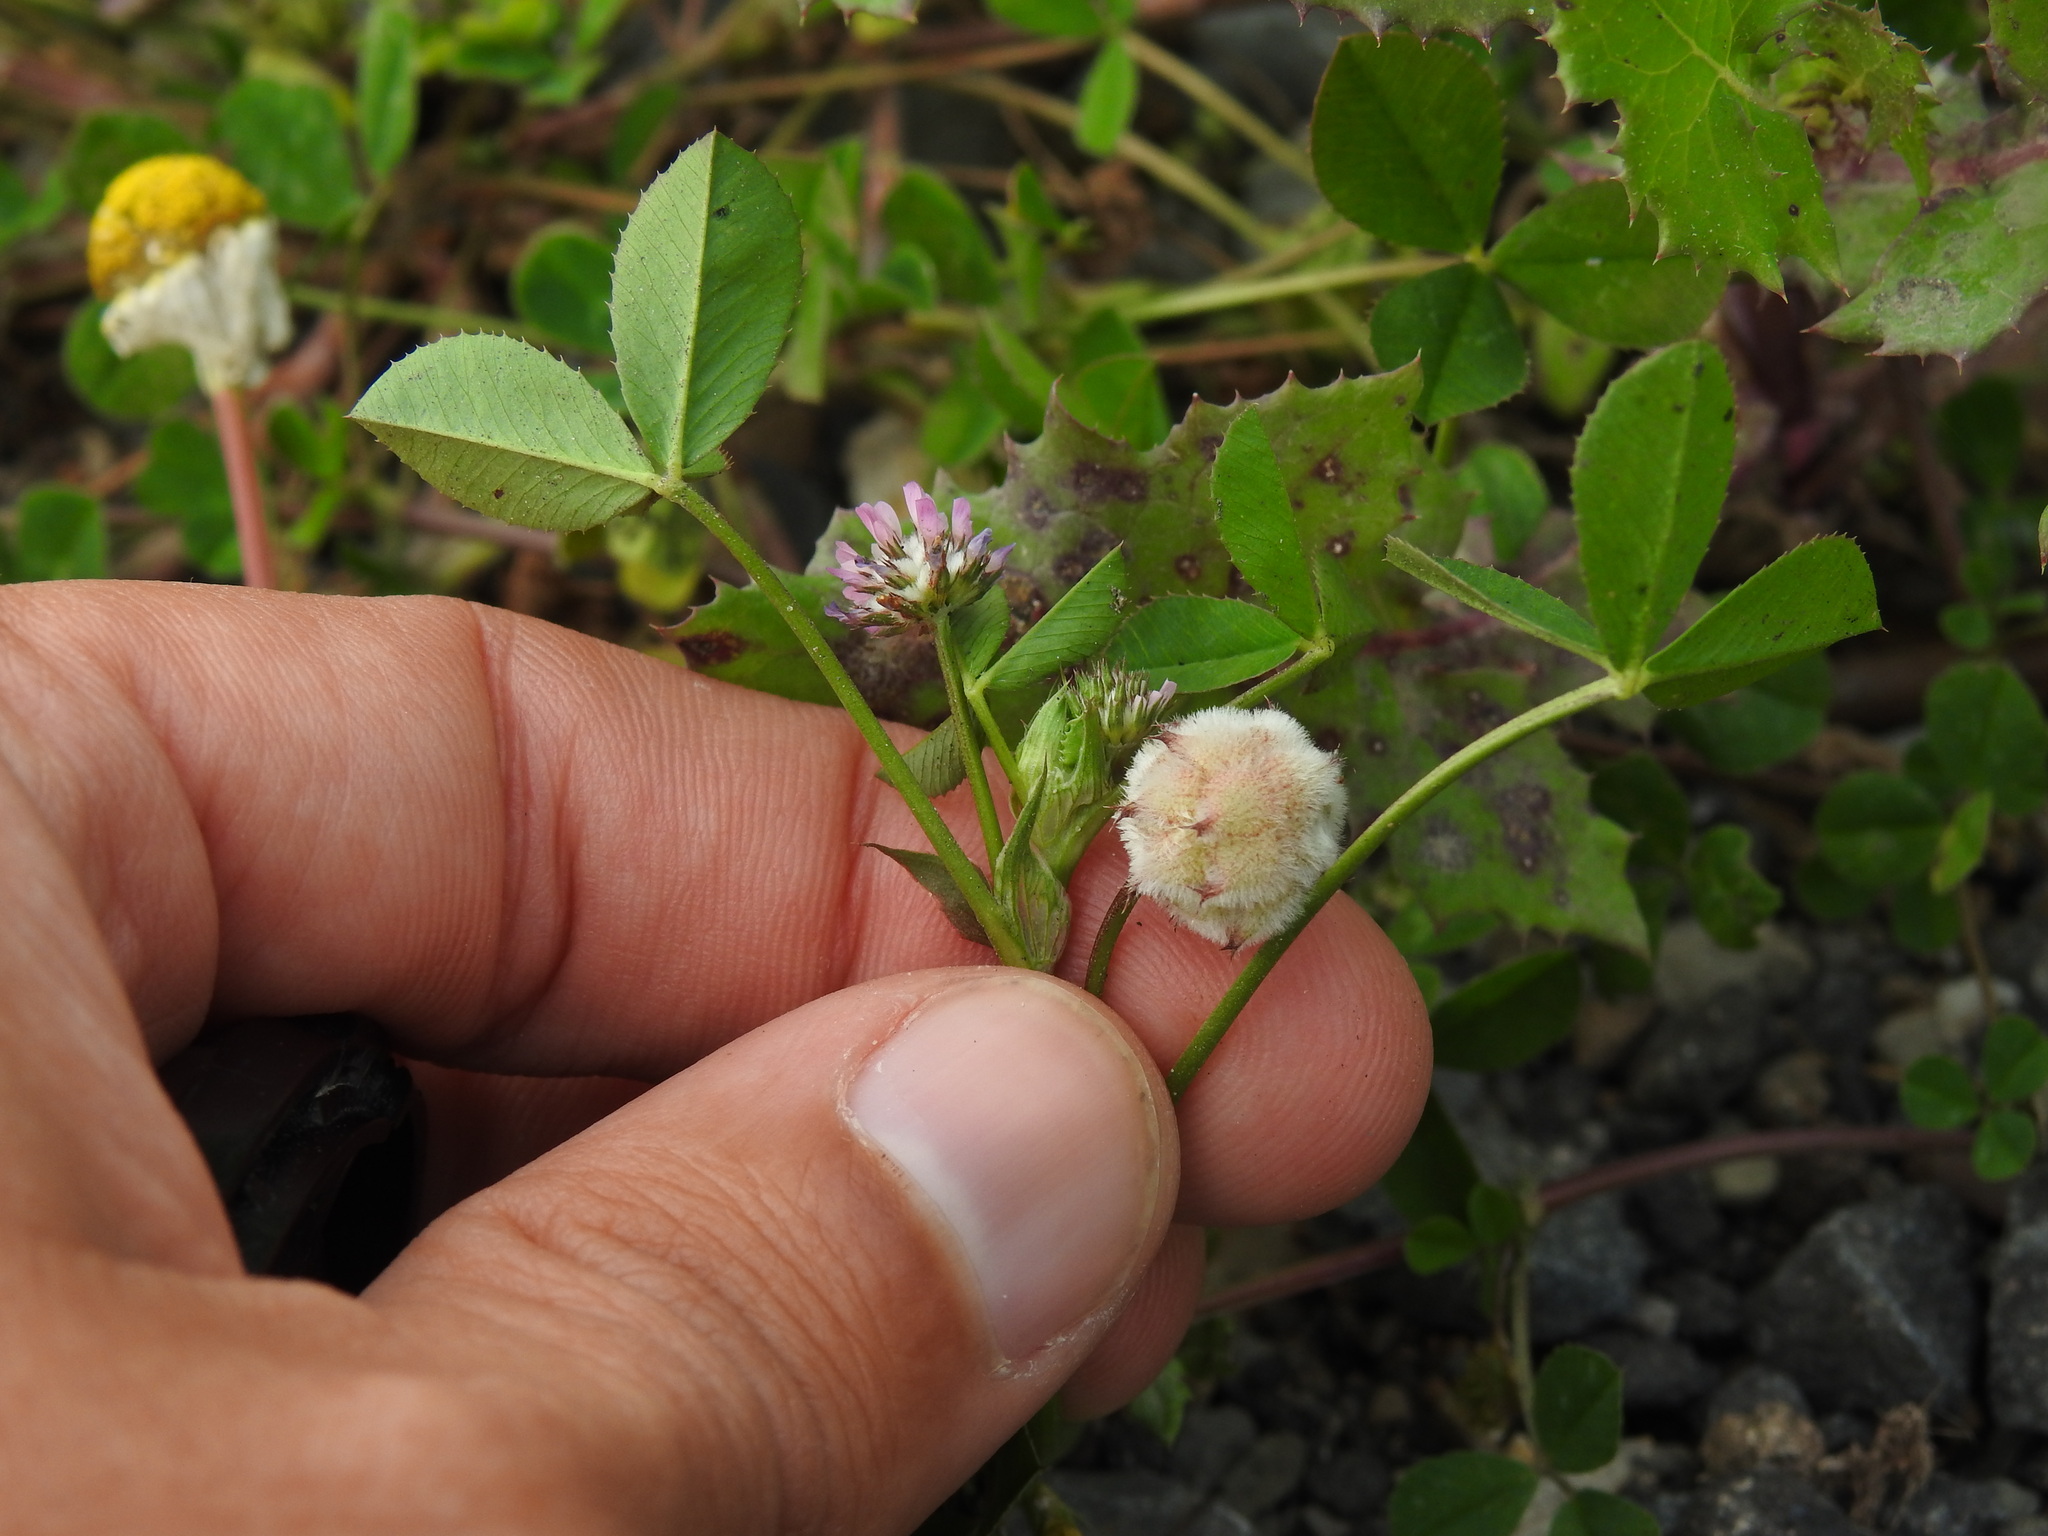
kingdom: Plantae
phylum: Tracheophyta
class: Magnoliopsida
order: Fabales
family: Fabaceae
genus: Trifolium
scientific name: Trifolium tomentosum
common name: Woolly clover
